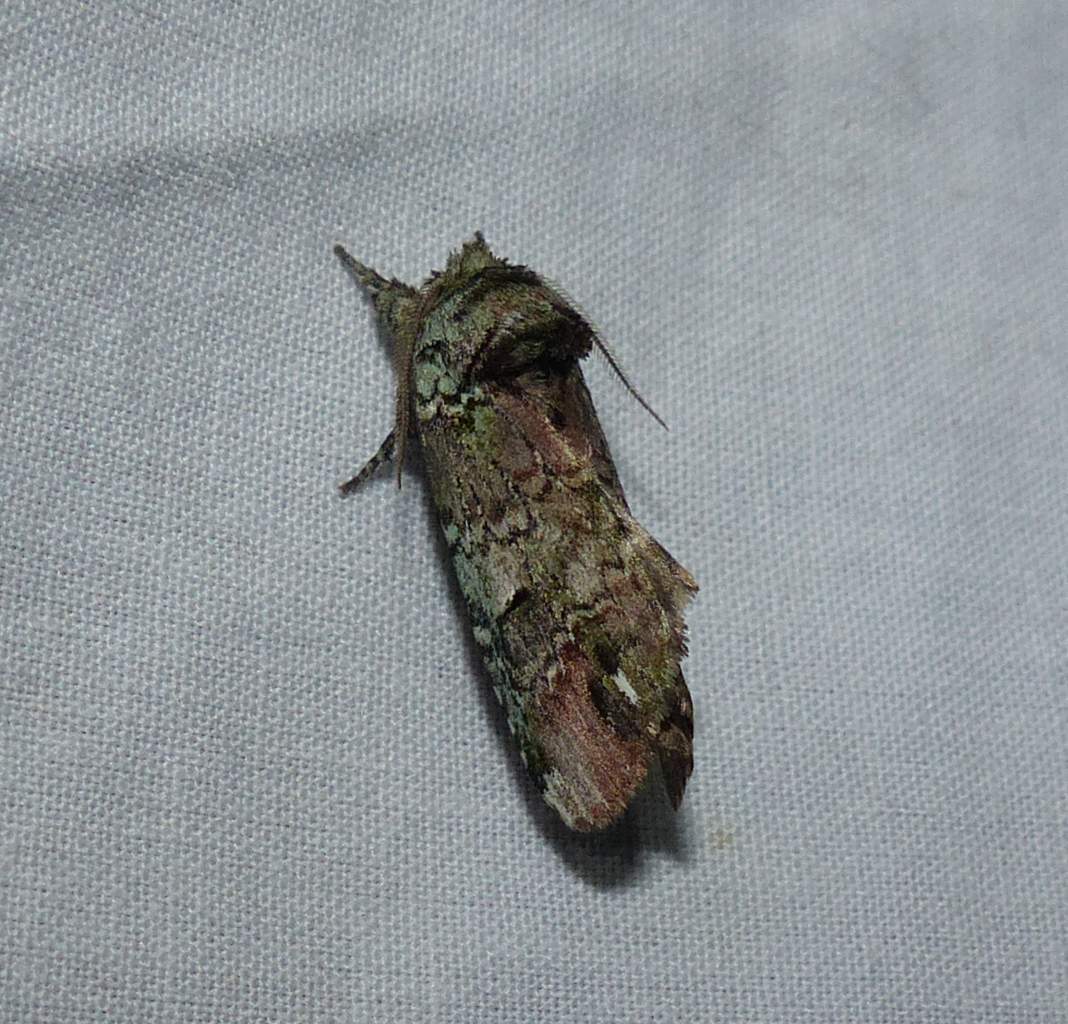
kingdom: Animalia
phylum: Arthropoda
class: Insecta
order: Lepidoptera
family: Notodontidae
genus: Schizura
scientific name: Schizura
